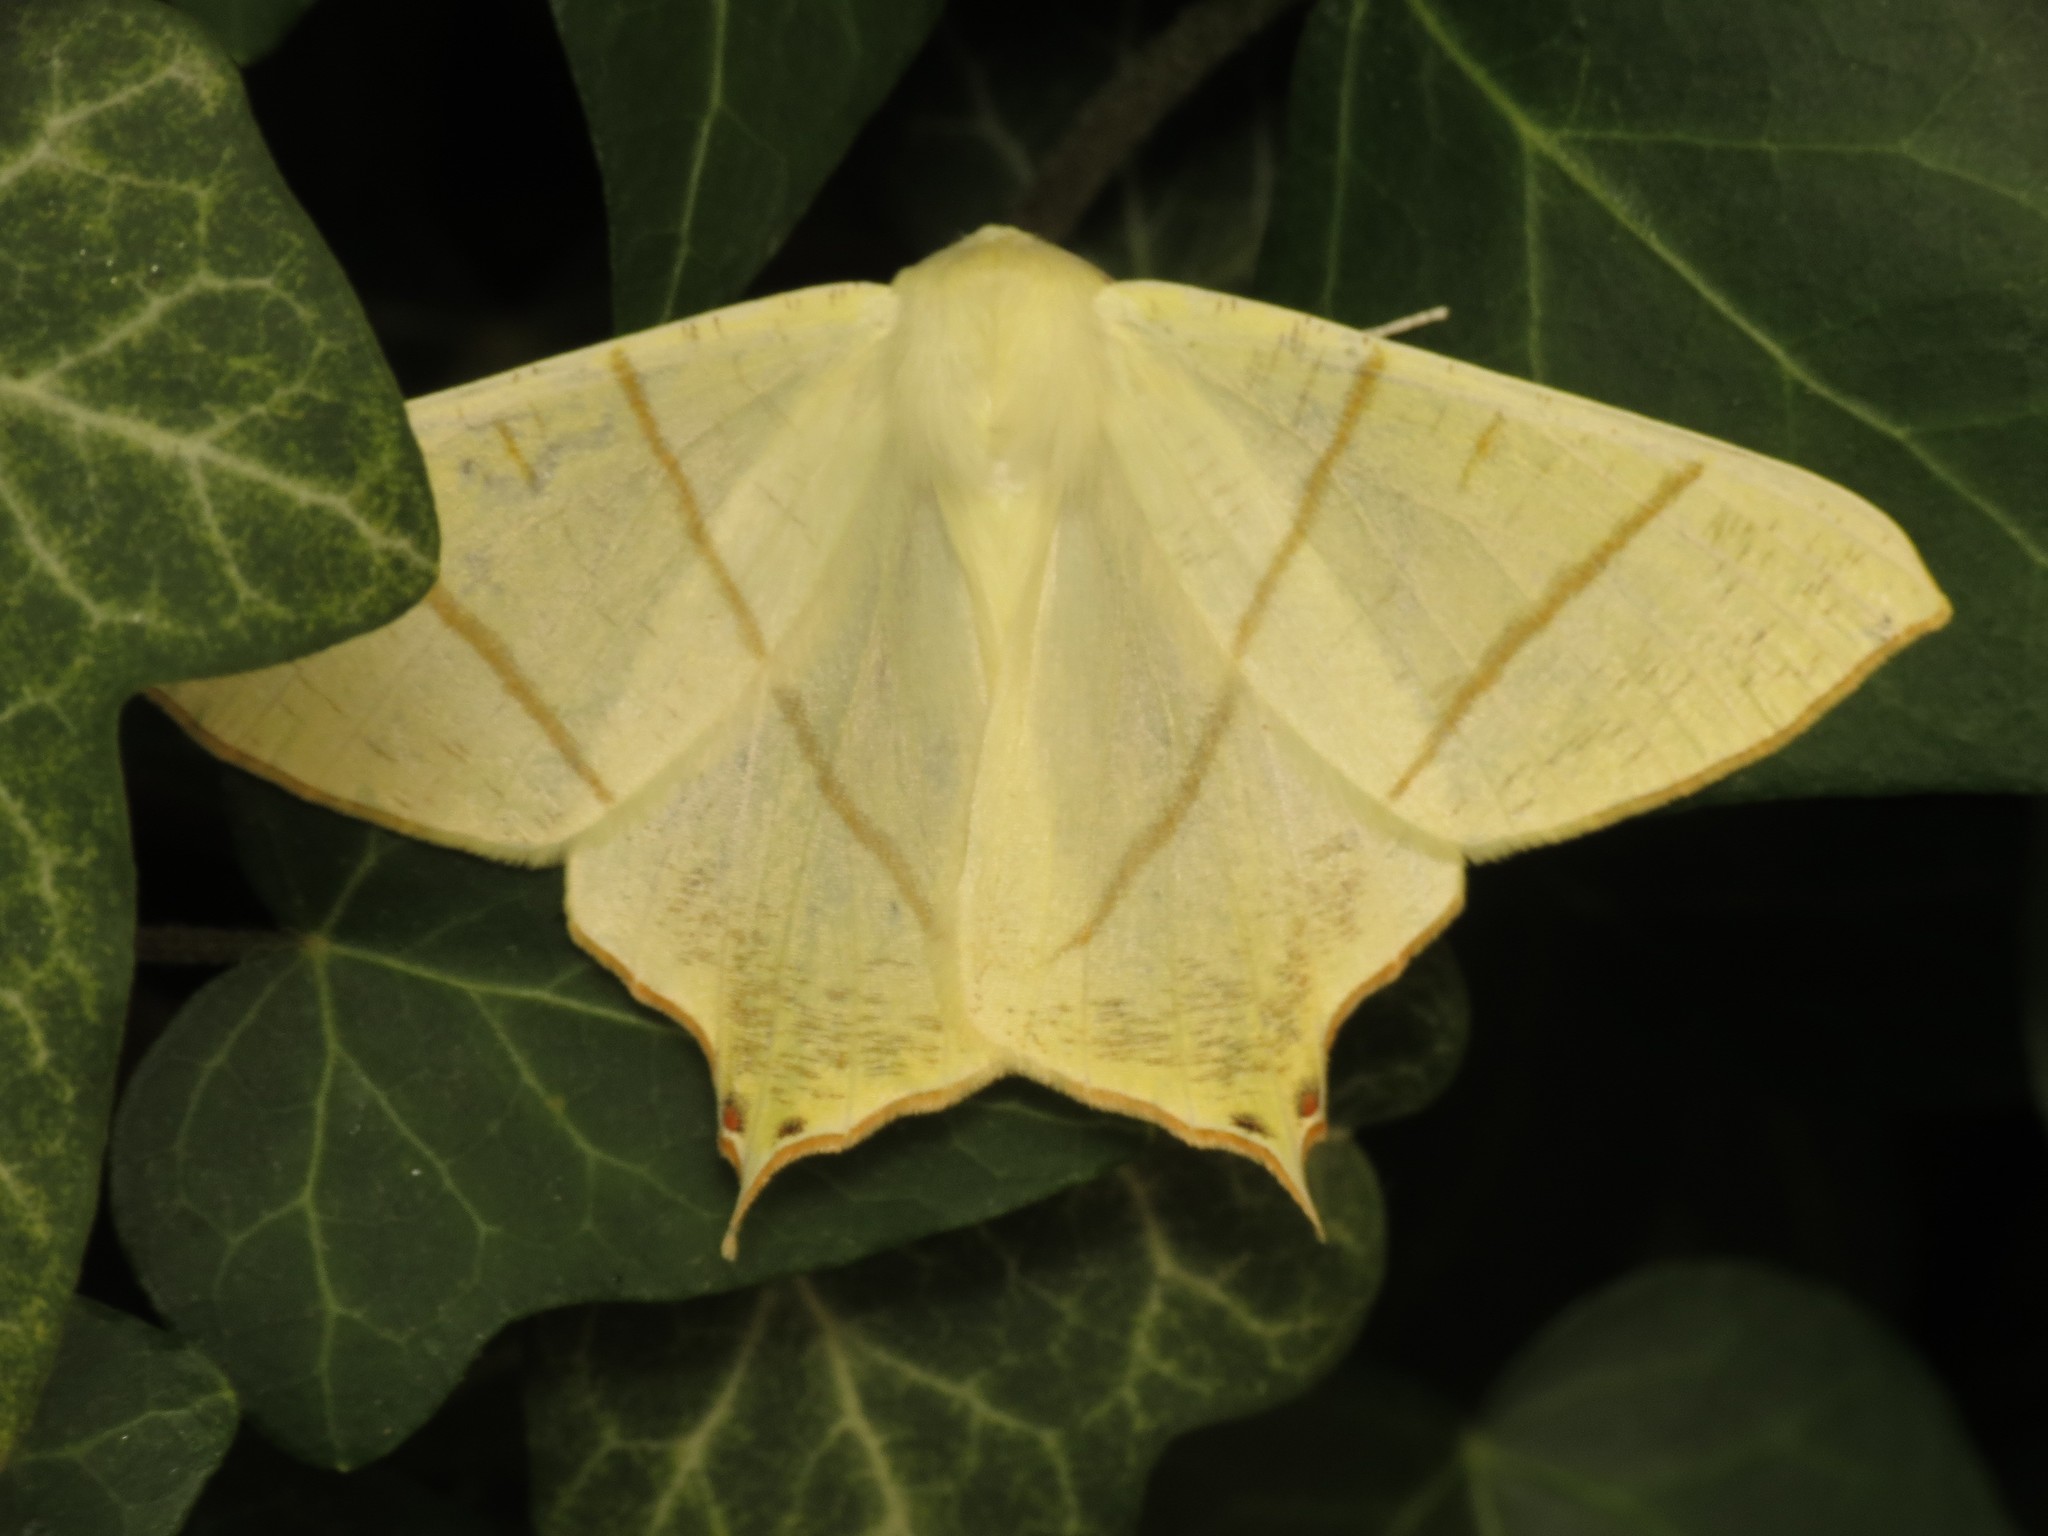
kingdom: Animalia
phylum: Arthropoda
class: Insecta
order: Lepidoptera
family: Geometridae
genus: Ourapteryx
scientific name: Ourapteryx sambucaria
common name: Swallow-tailed moth
